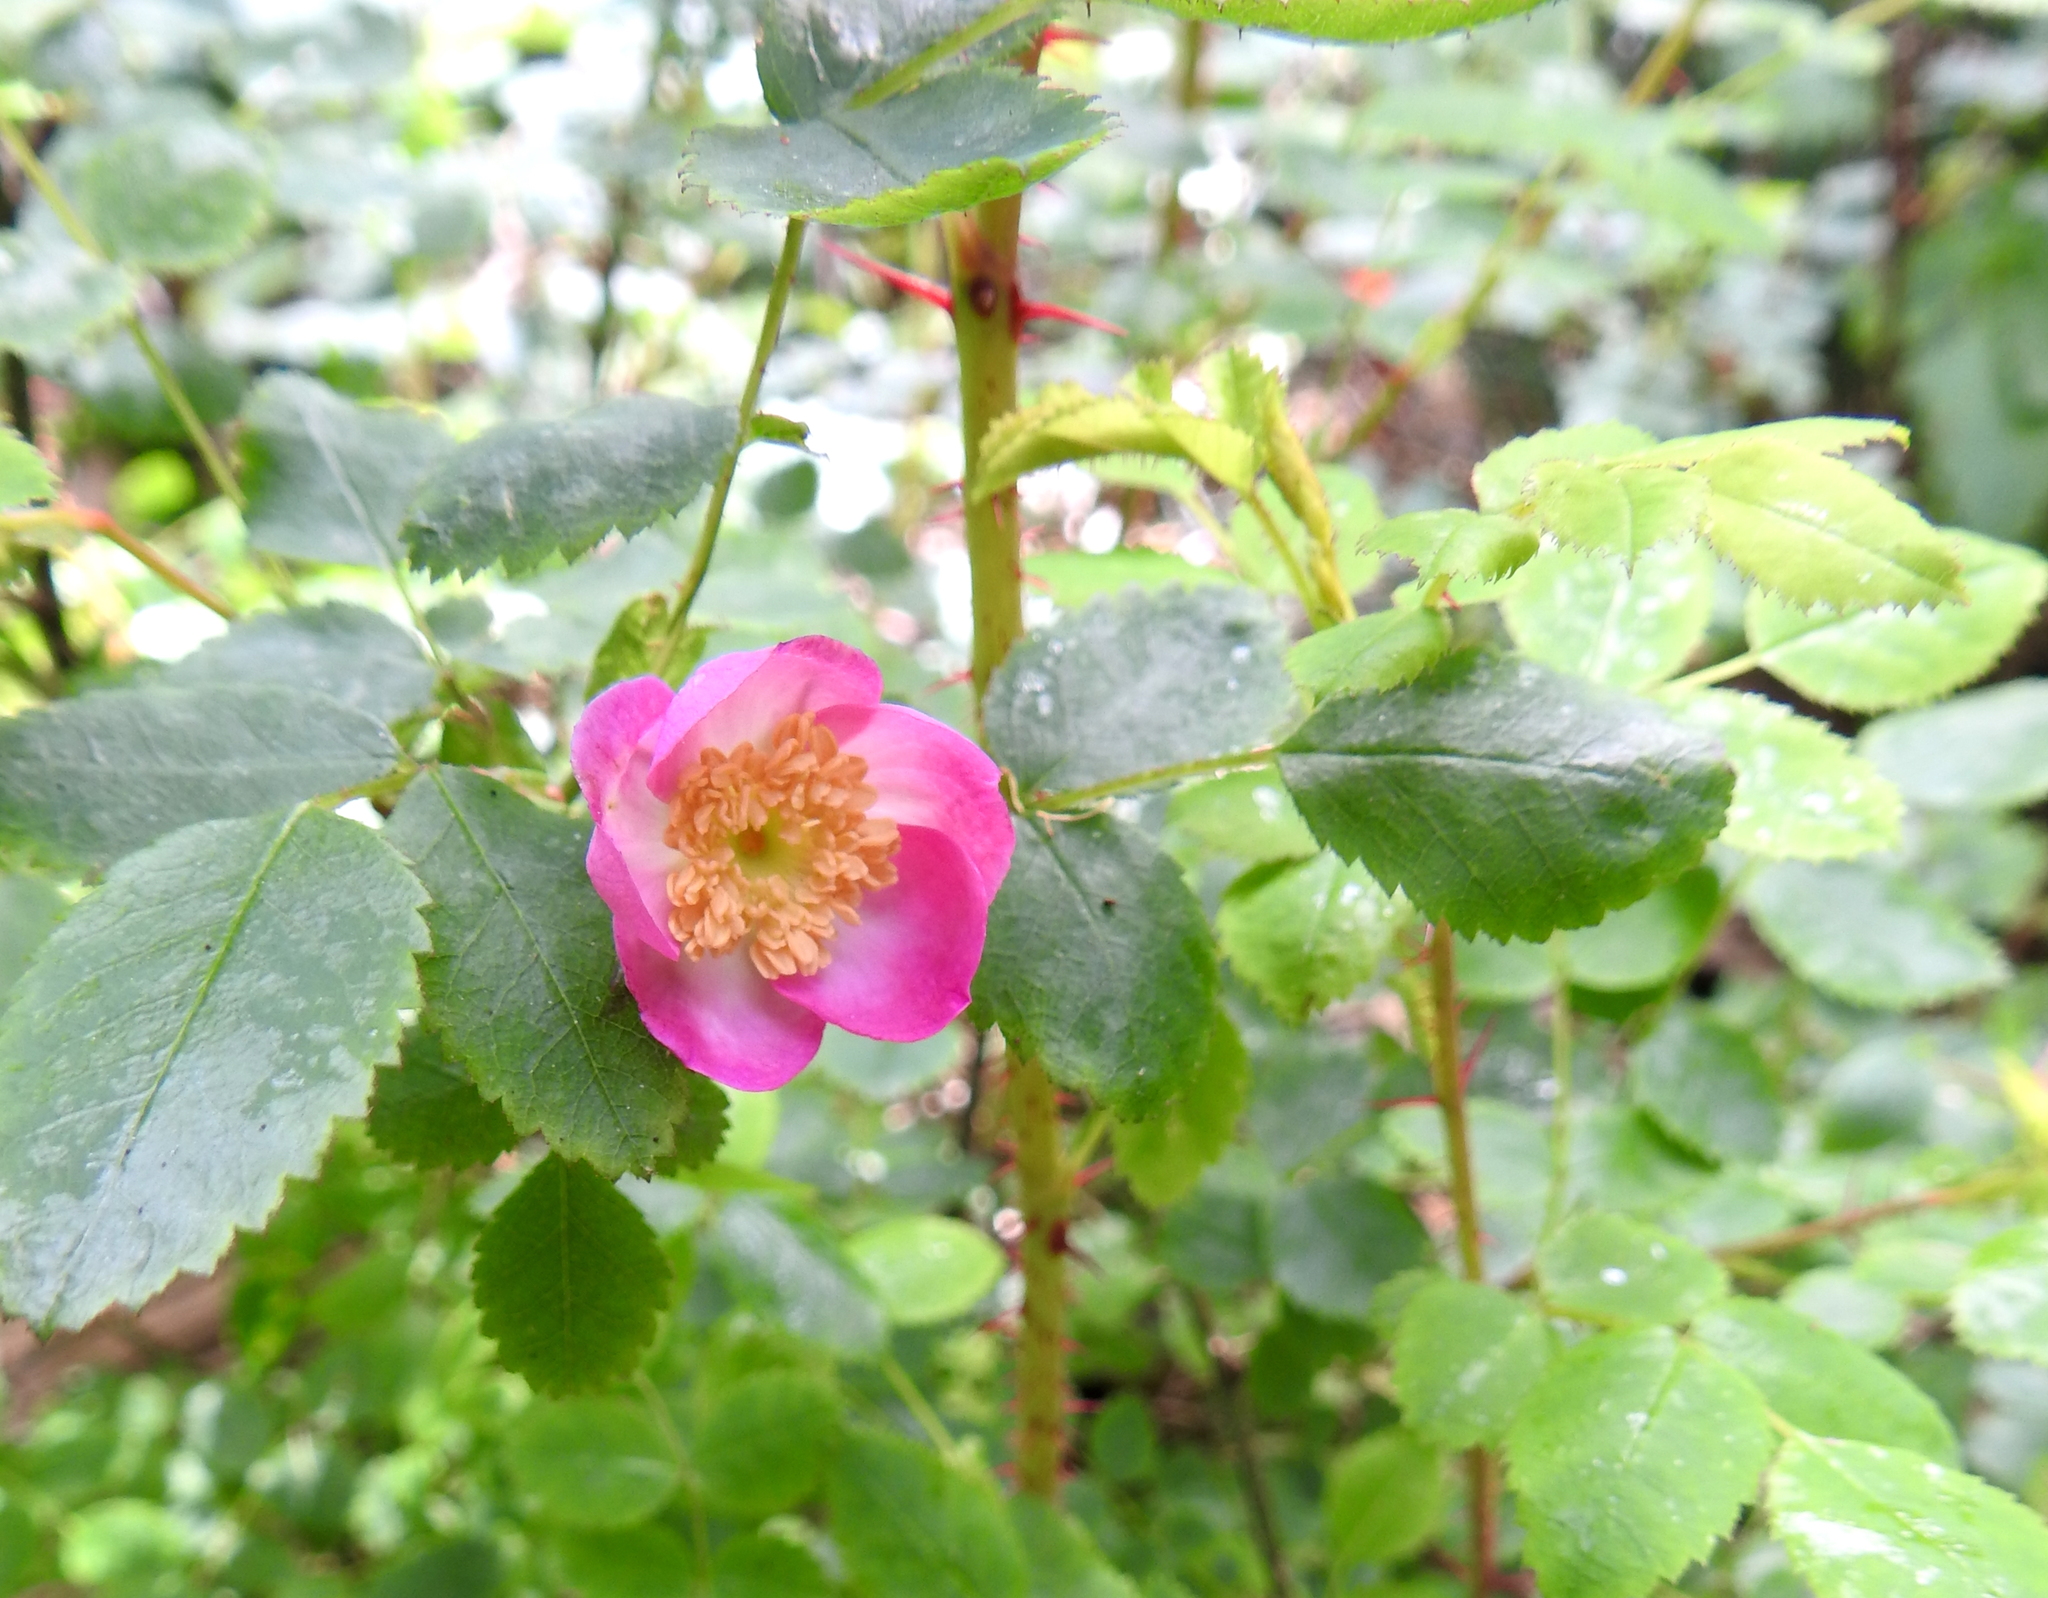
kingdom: Plantae
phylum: Tracheophyta
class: Magnoliopsida
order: Rosales
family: Rosaceae
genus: Rosa
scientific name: Rosa gymnocarpa
